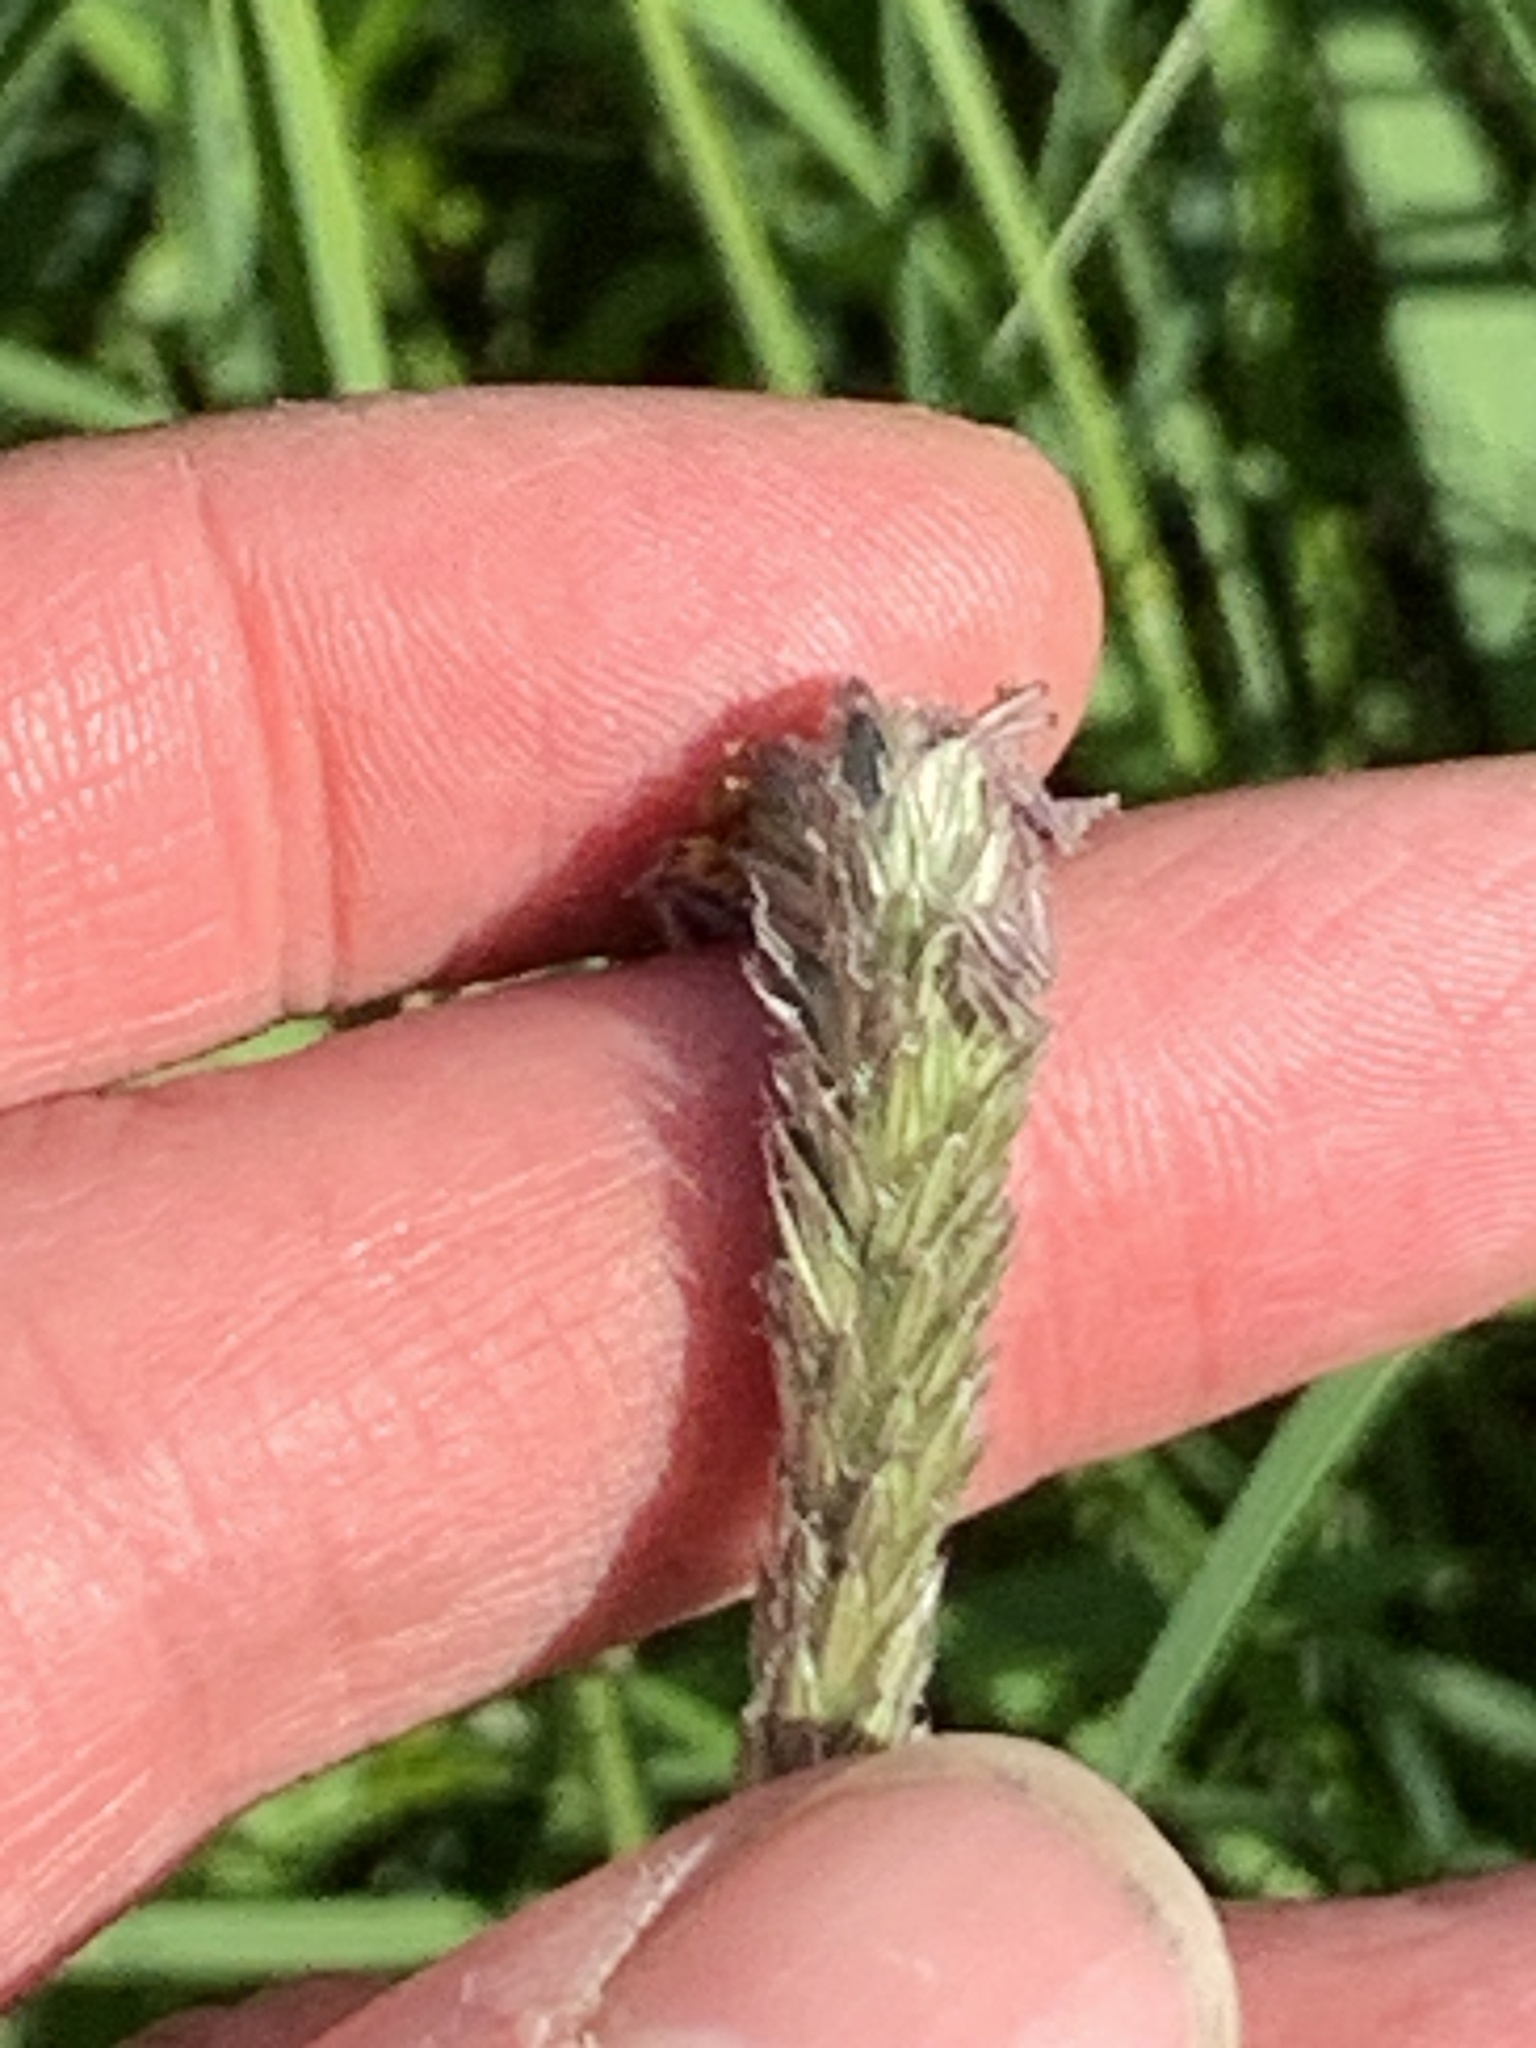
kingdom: Plantae
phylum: Tracheophyta
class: Liliopsida
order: Poales
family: Poaceae
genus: Alopecurus
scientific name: Alopecurus pratensis
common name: Meadow foxtail
